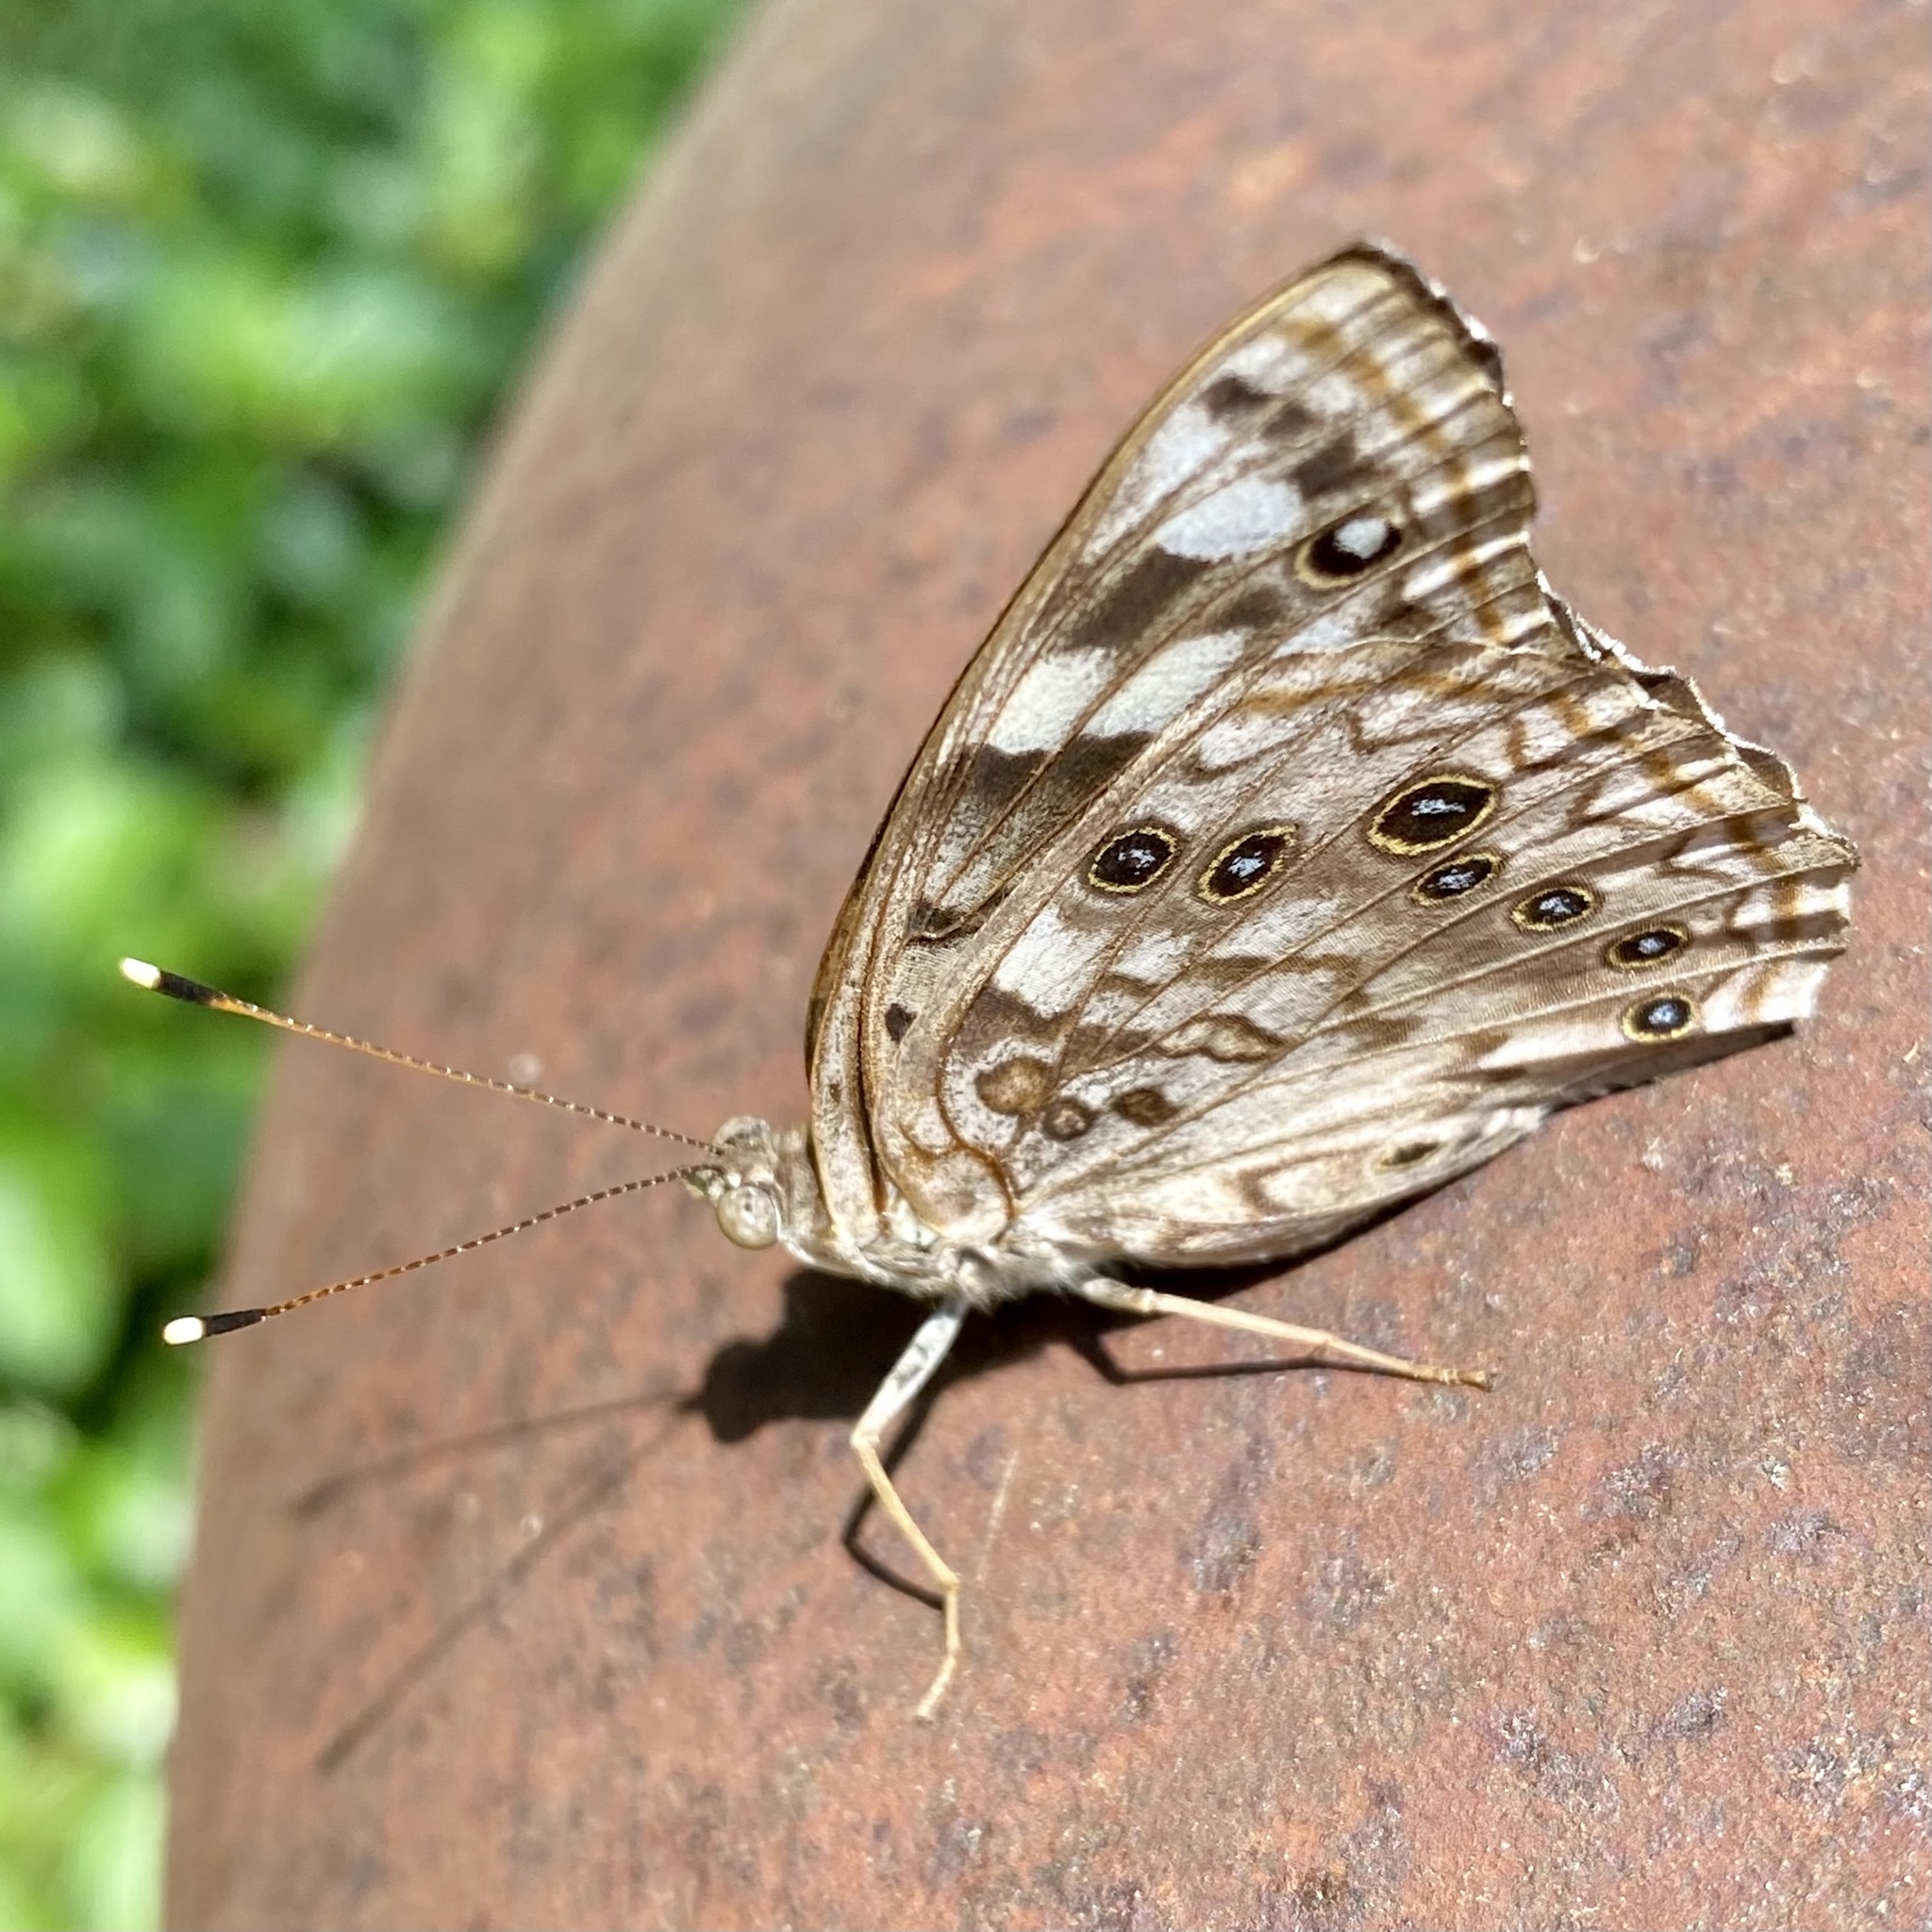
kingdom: Animalia
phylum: Arthropoda
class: Insecta
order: Lepidoptera
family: Nymphalidae
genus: Asterocampa
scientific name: Asterocampa celtis
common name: Hackberry emperor
